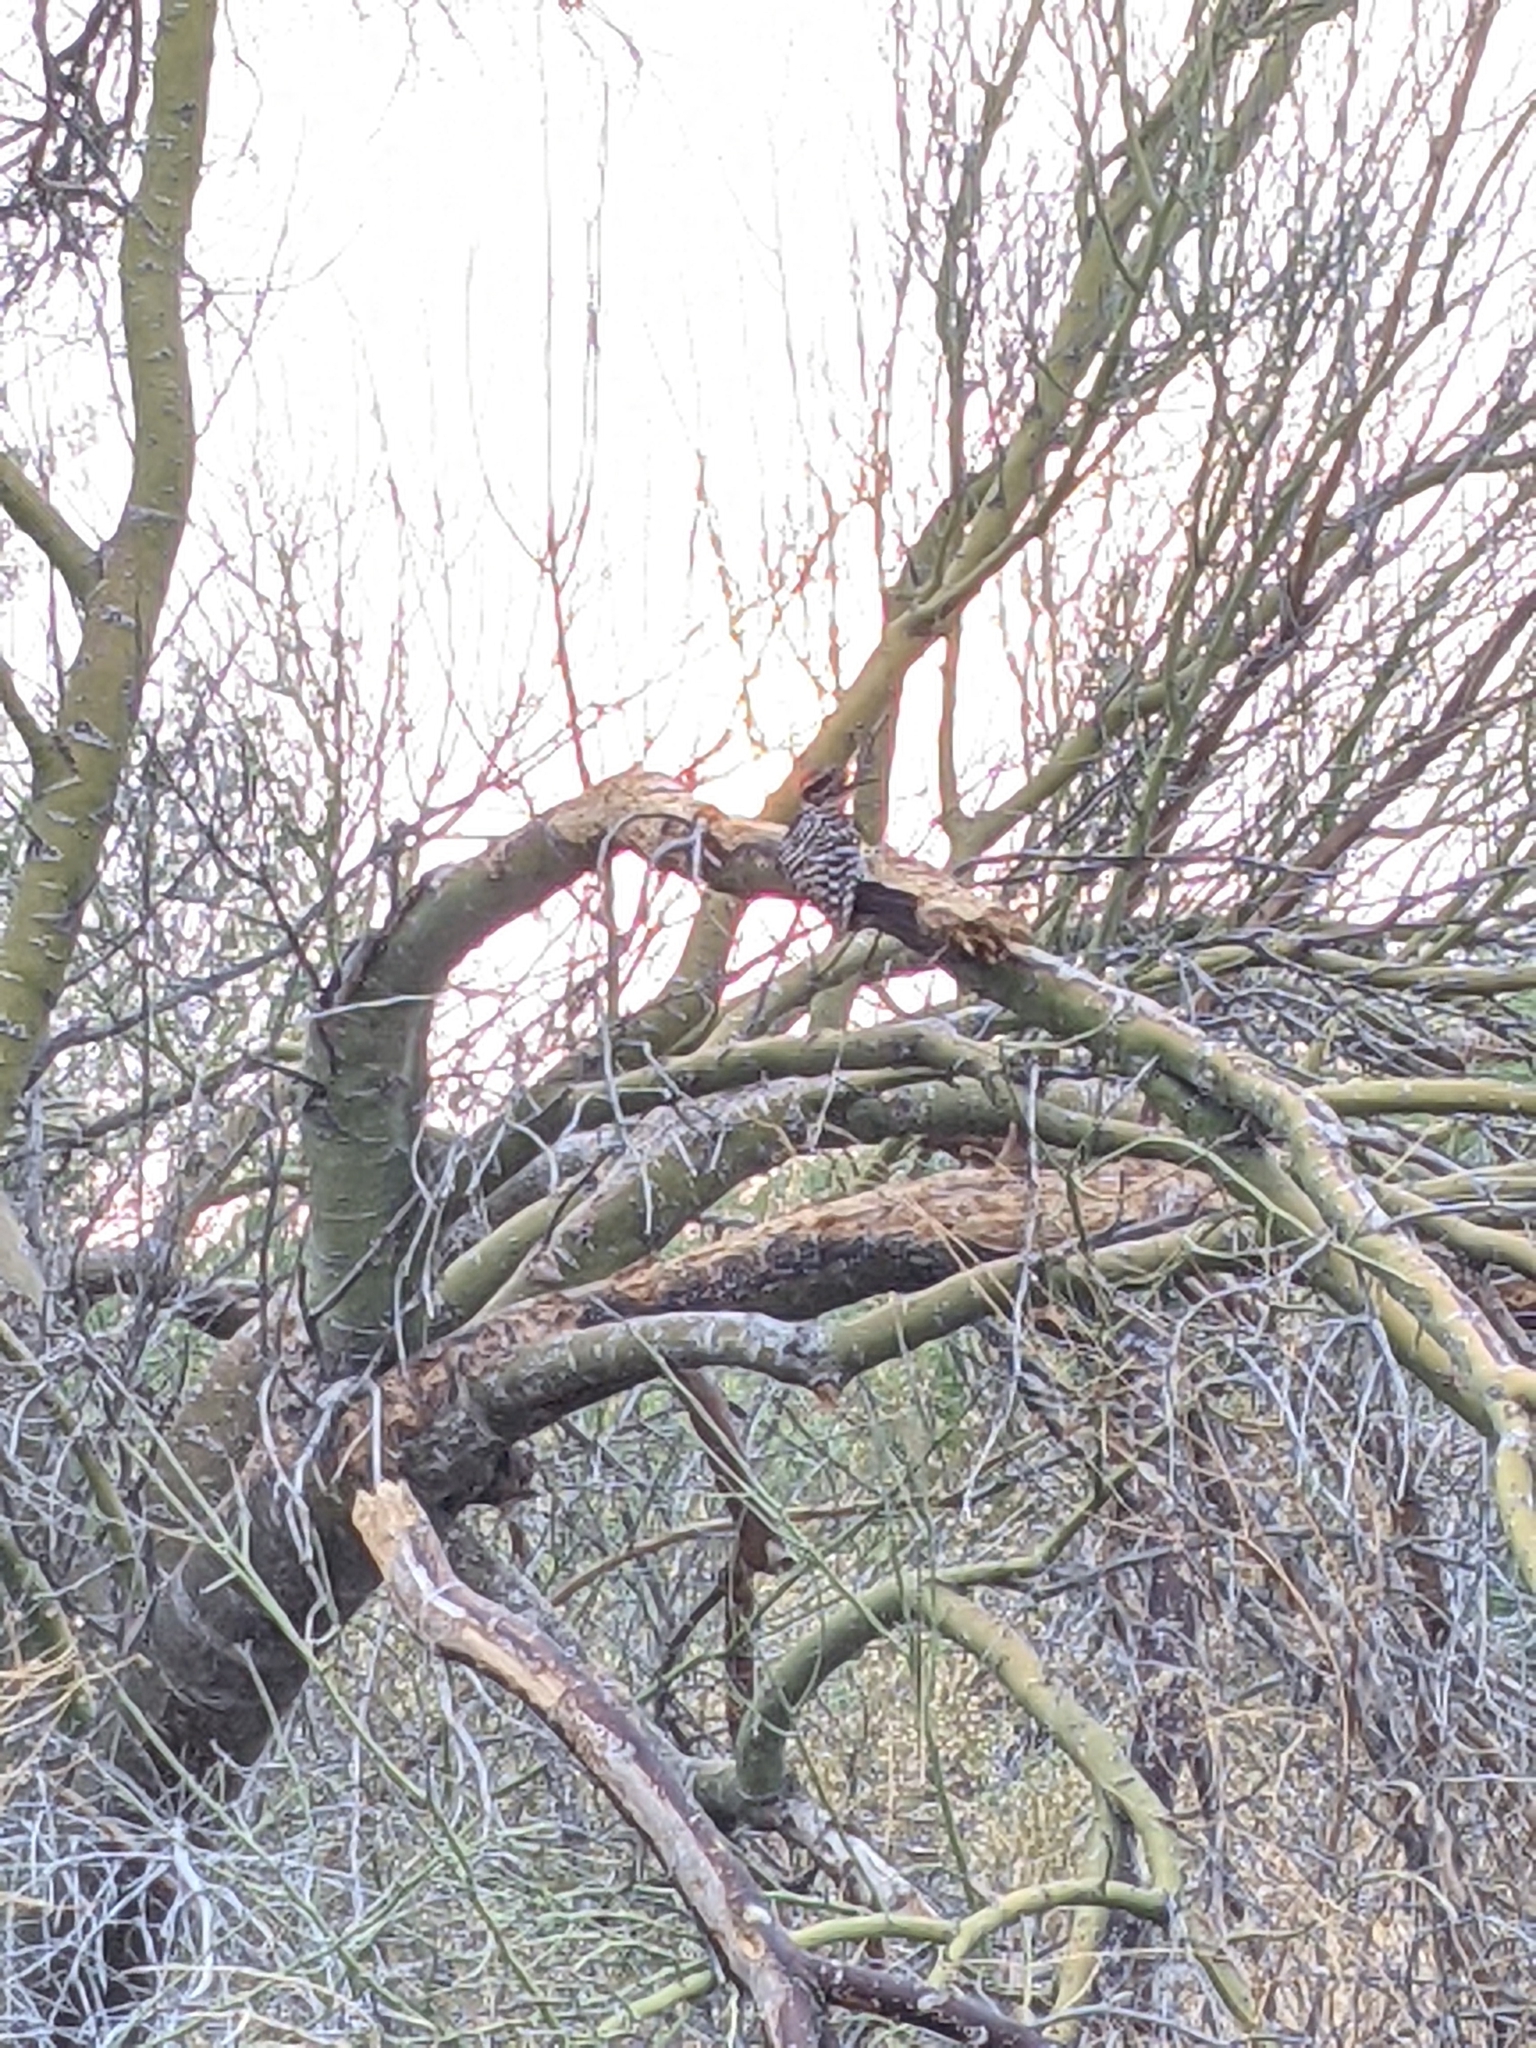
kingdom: Animalia
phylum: Chordata
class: Aves
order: Piciformes
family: Picidae
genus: Dryobates
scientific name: Dryobates scalaris
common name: Ladder-backed woodpecker
